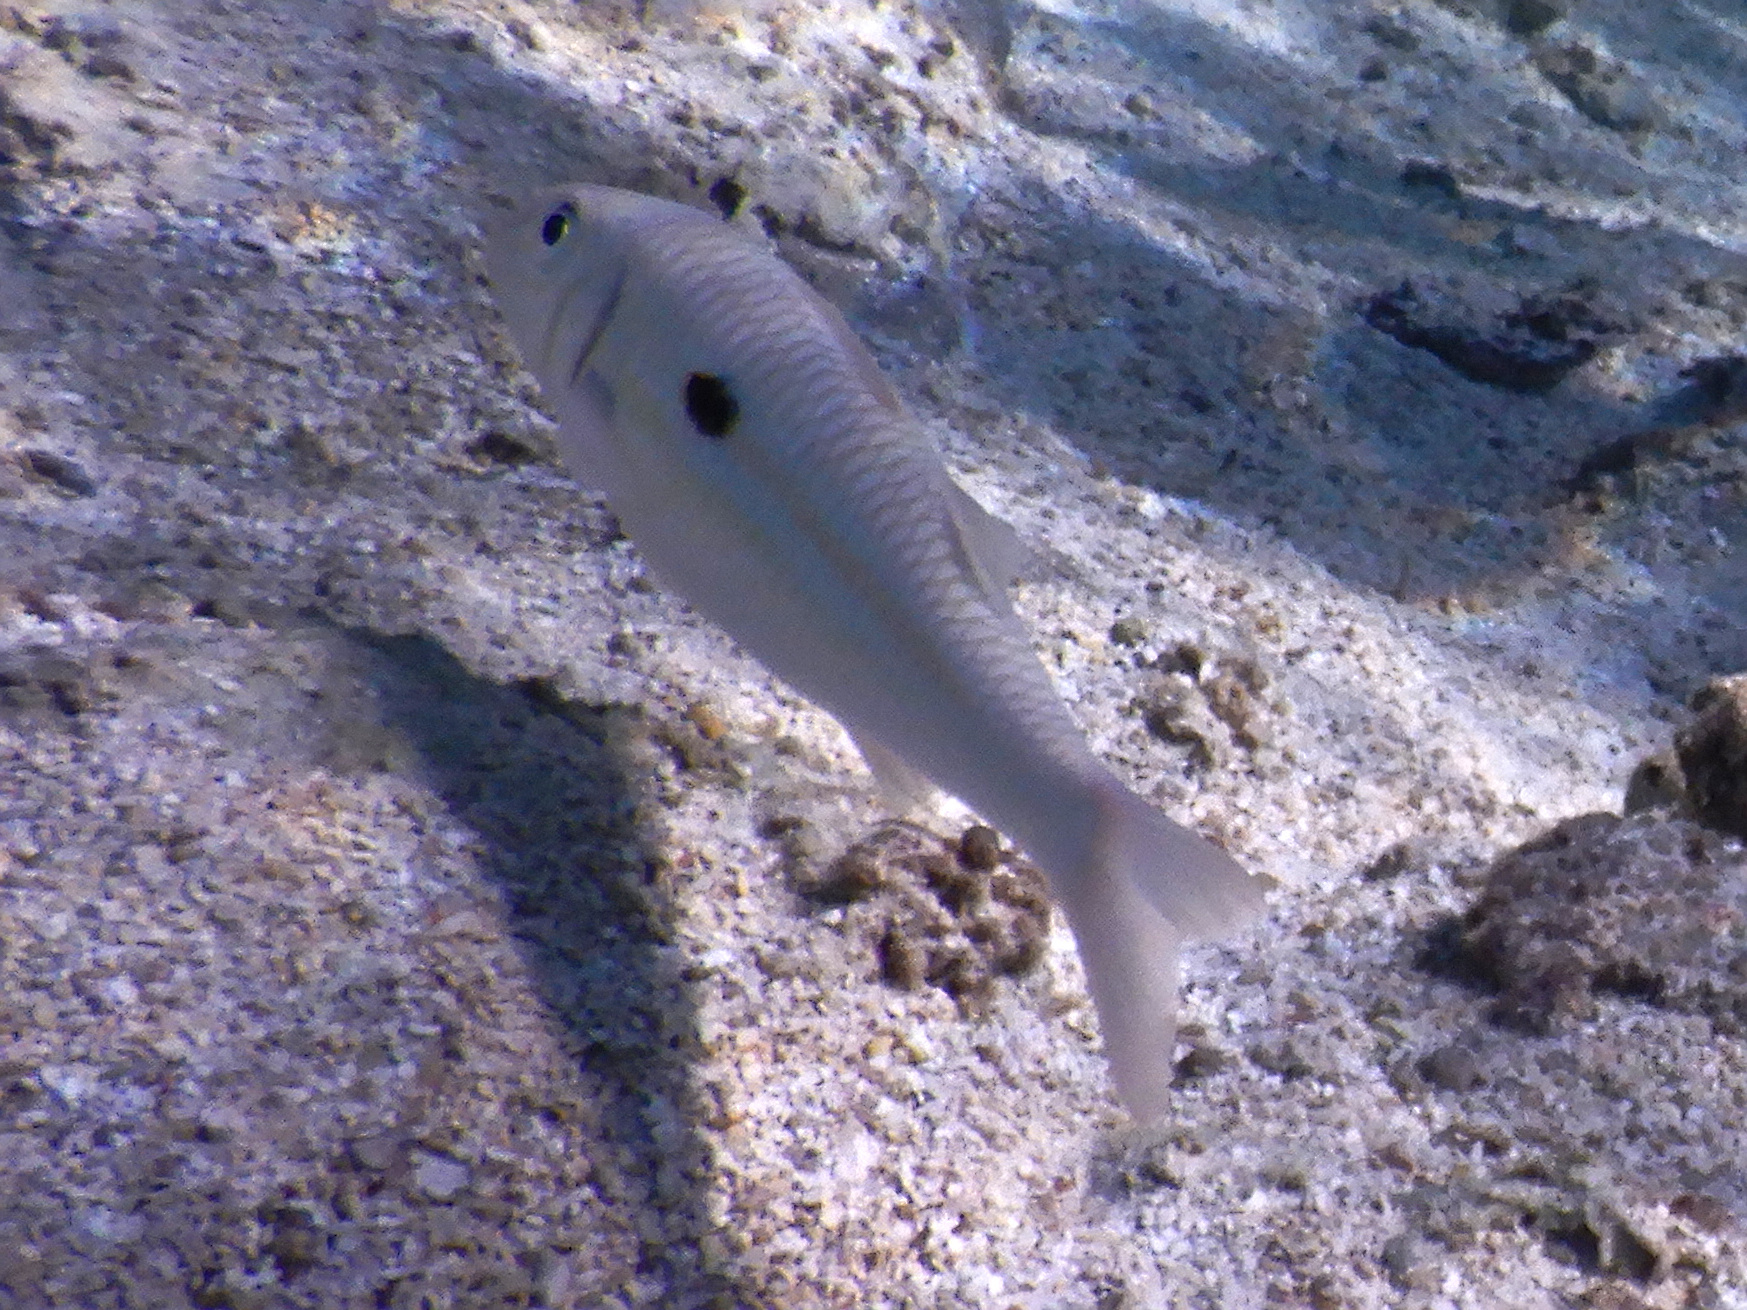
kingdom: Animalia
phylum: Chordata
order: Perciformes
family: Mullidae
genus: Mulloidichthys
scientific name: Mulloidichthys flavolineatus
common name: Yellowstripe goatfish
